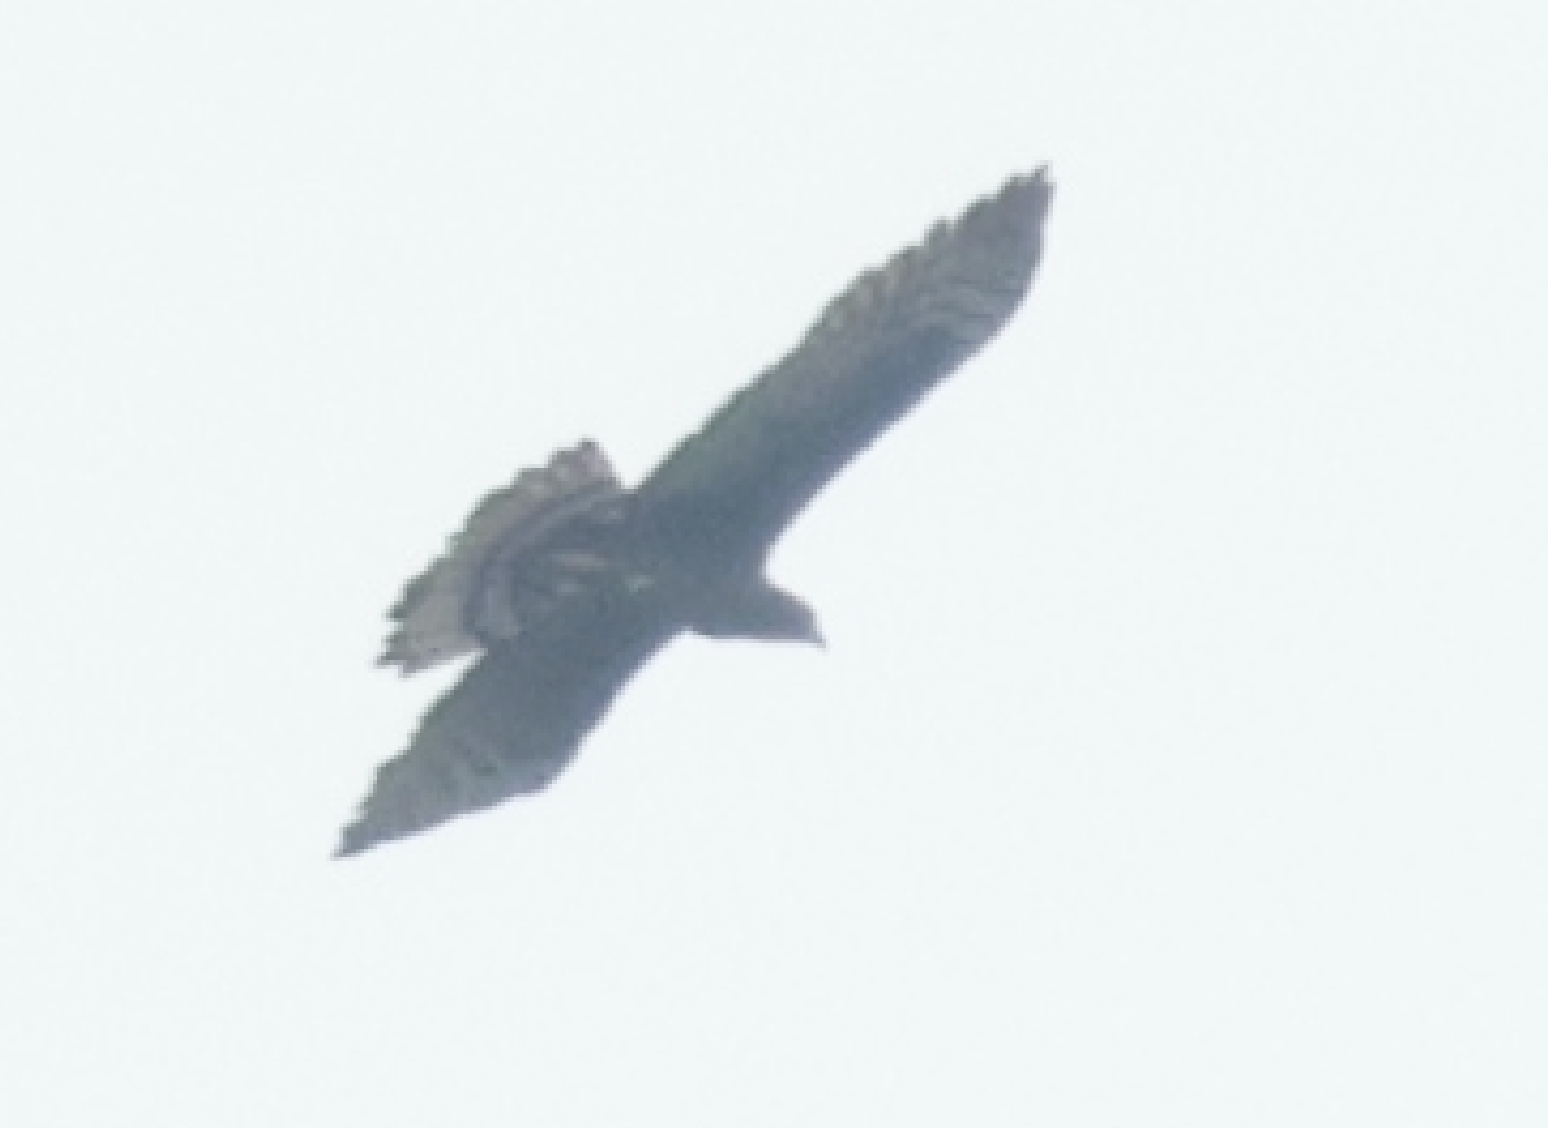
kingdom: Animalia
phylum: Chordata
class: Aves
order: Accipitriformes
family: Accipitridae
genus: Pernis
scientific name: Pernis ptilorhynchus
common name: Crested honey buzzard
